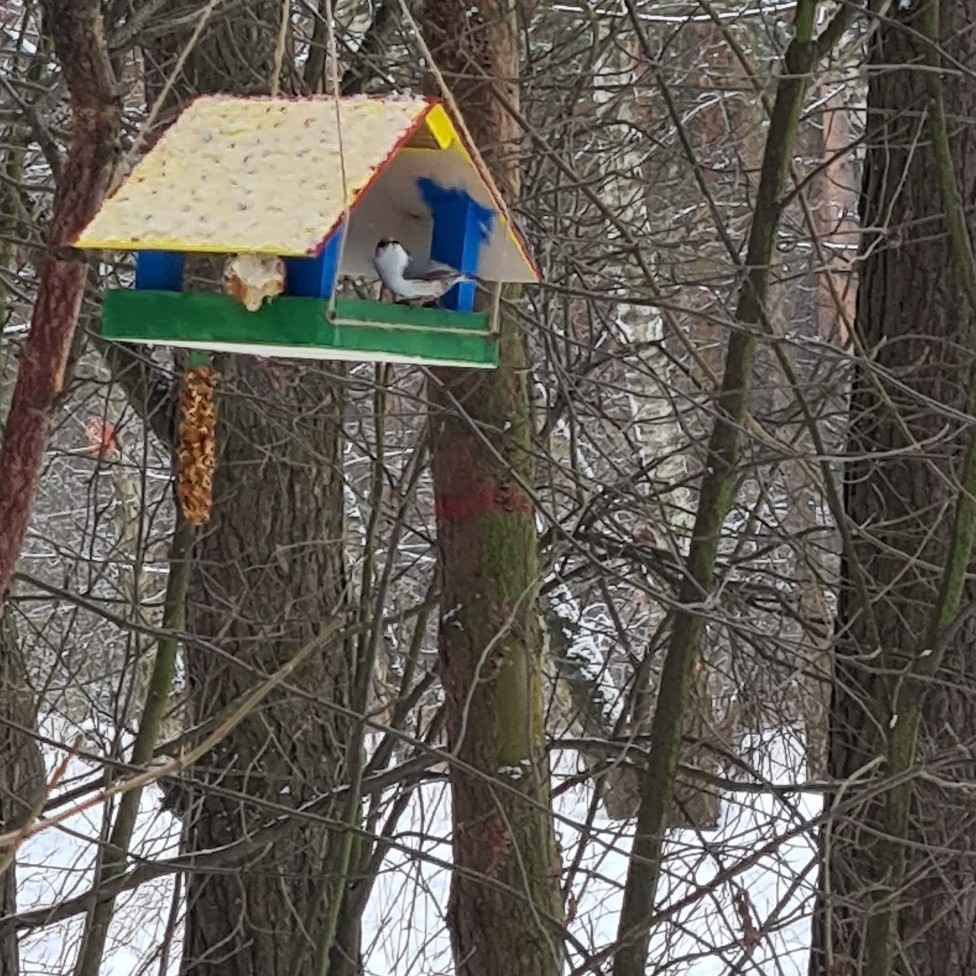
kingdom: Animalia
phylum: Chordata
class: Aves
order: Passeriformes
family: Sittidae
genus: Sitta
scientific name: Sitta europaea
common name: Eurasian nuthatch
